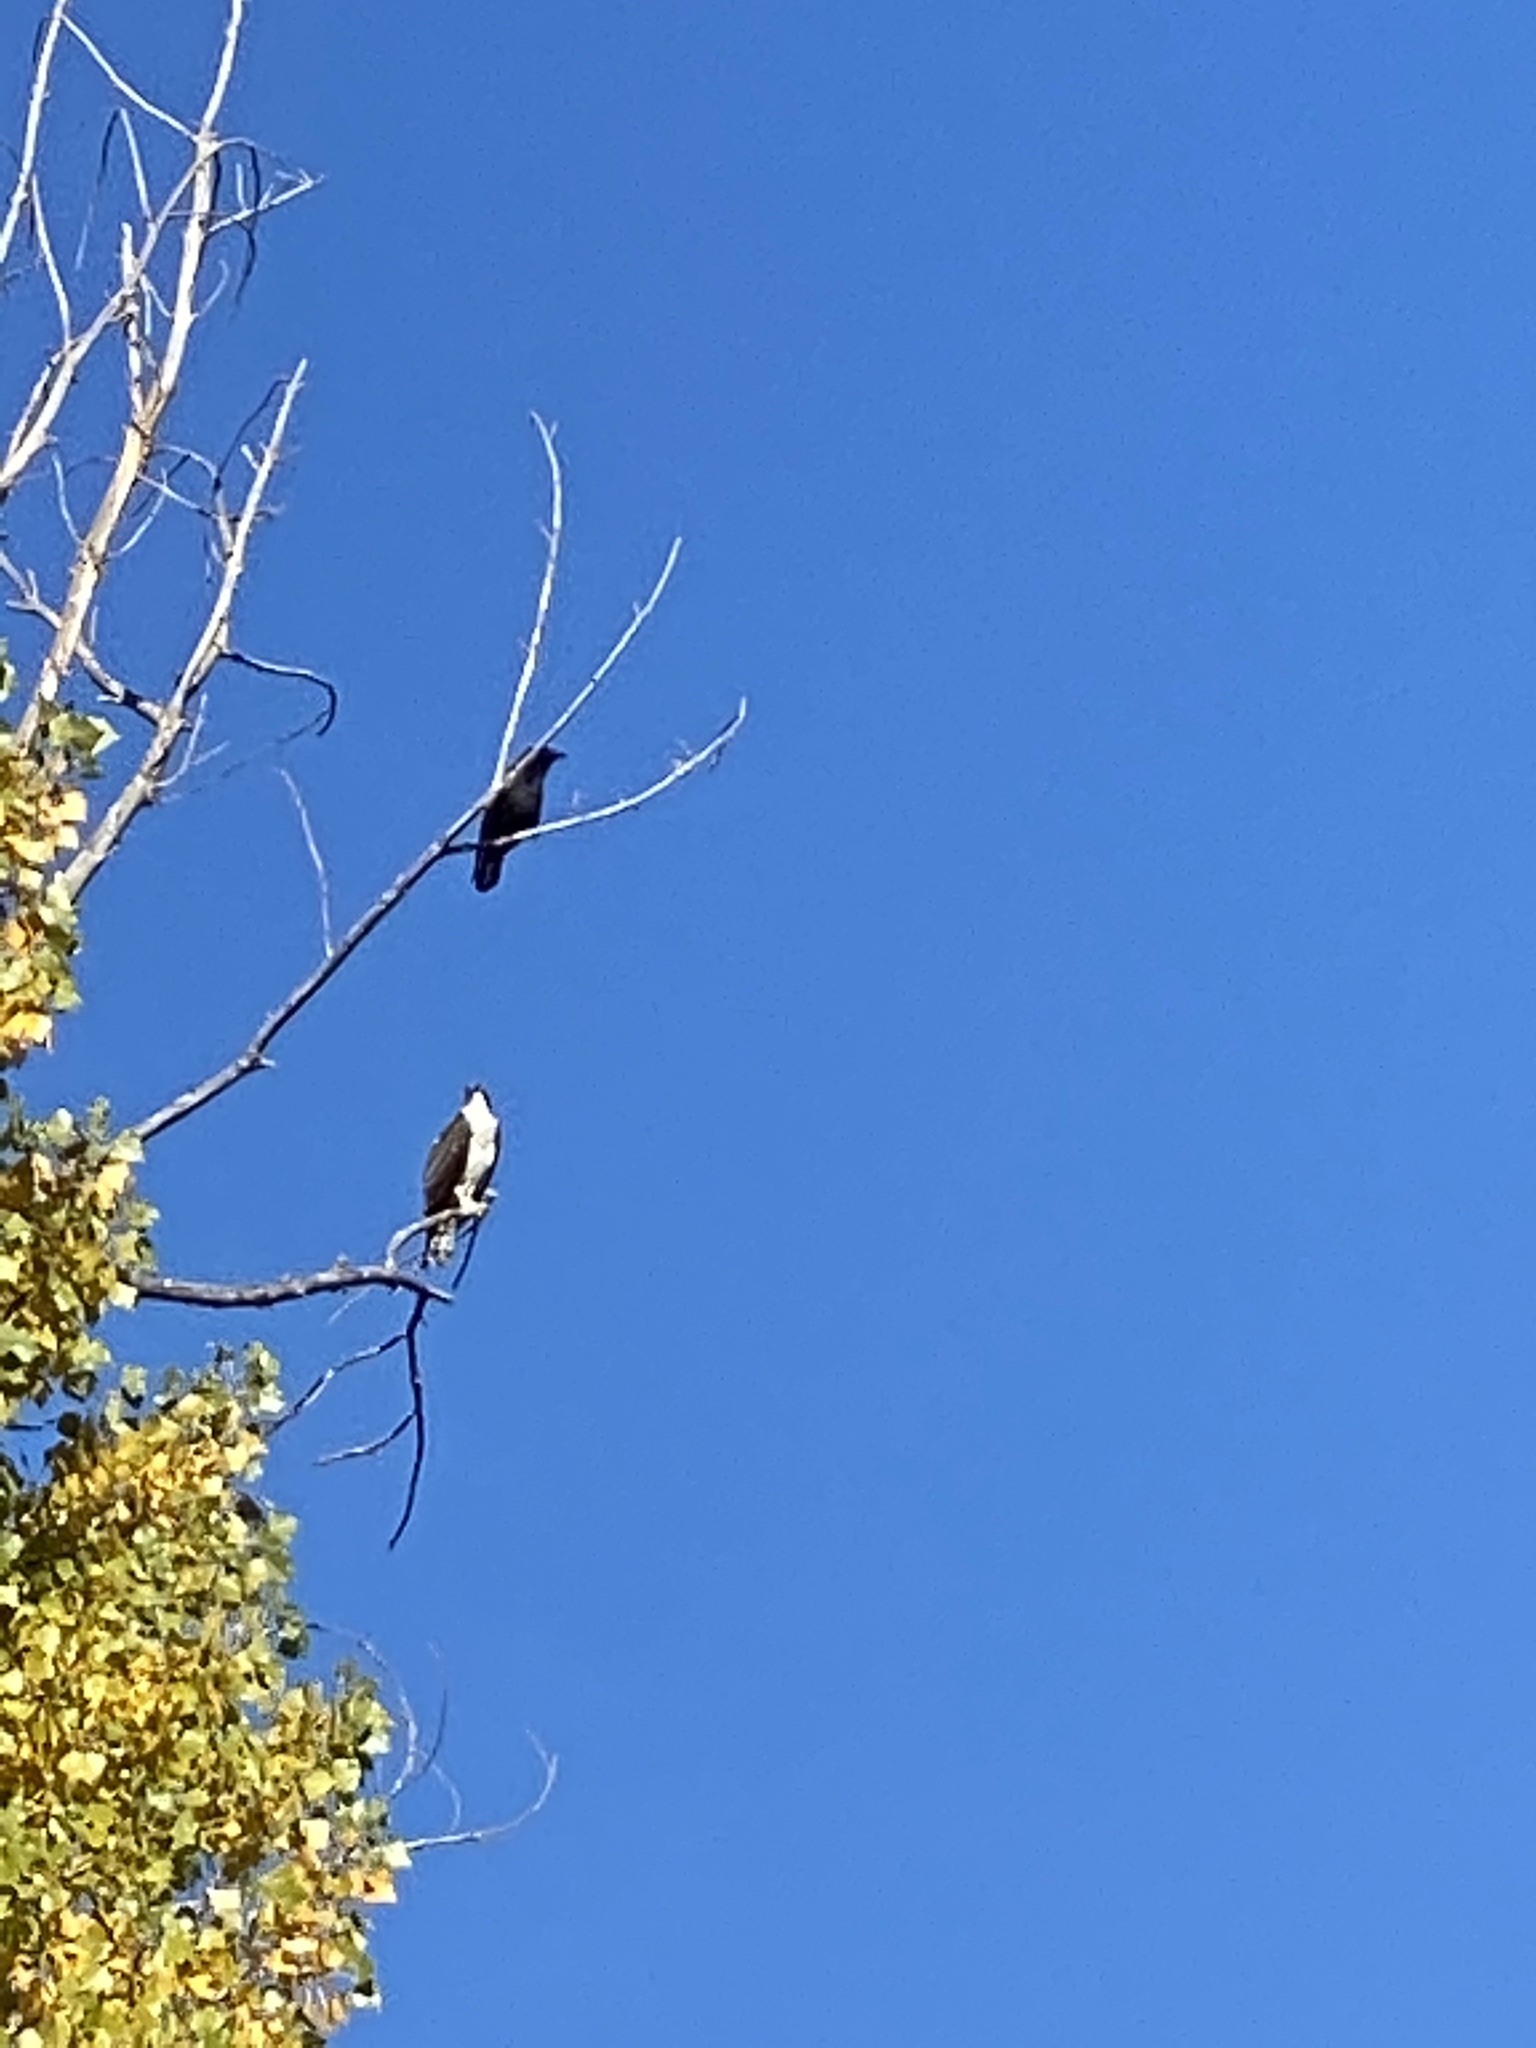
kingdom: Animalia
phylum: Chordata
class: Aves
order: Accipitriformes
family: Pandionidae
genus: Pandion
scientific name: Pandion haliaetus
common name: Osprey
